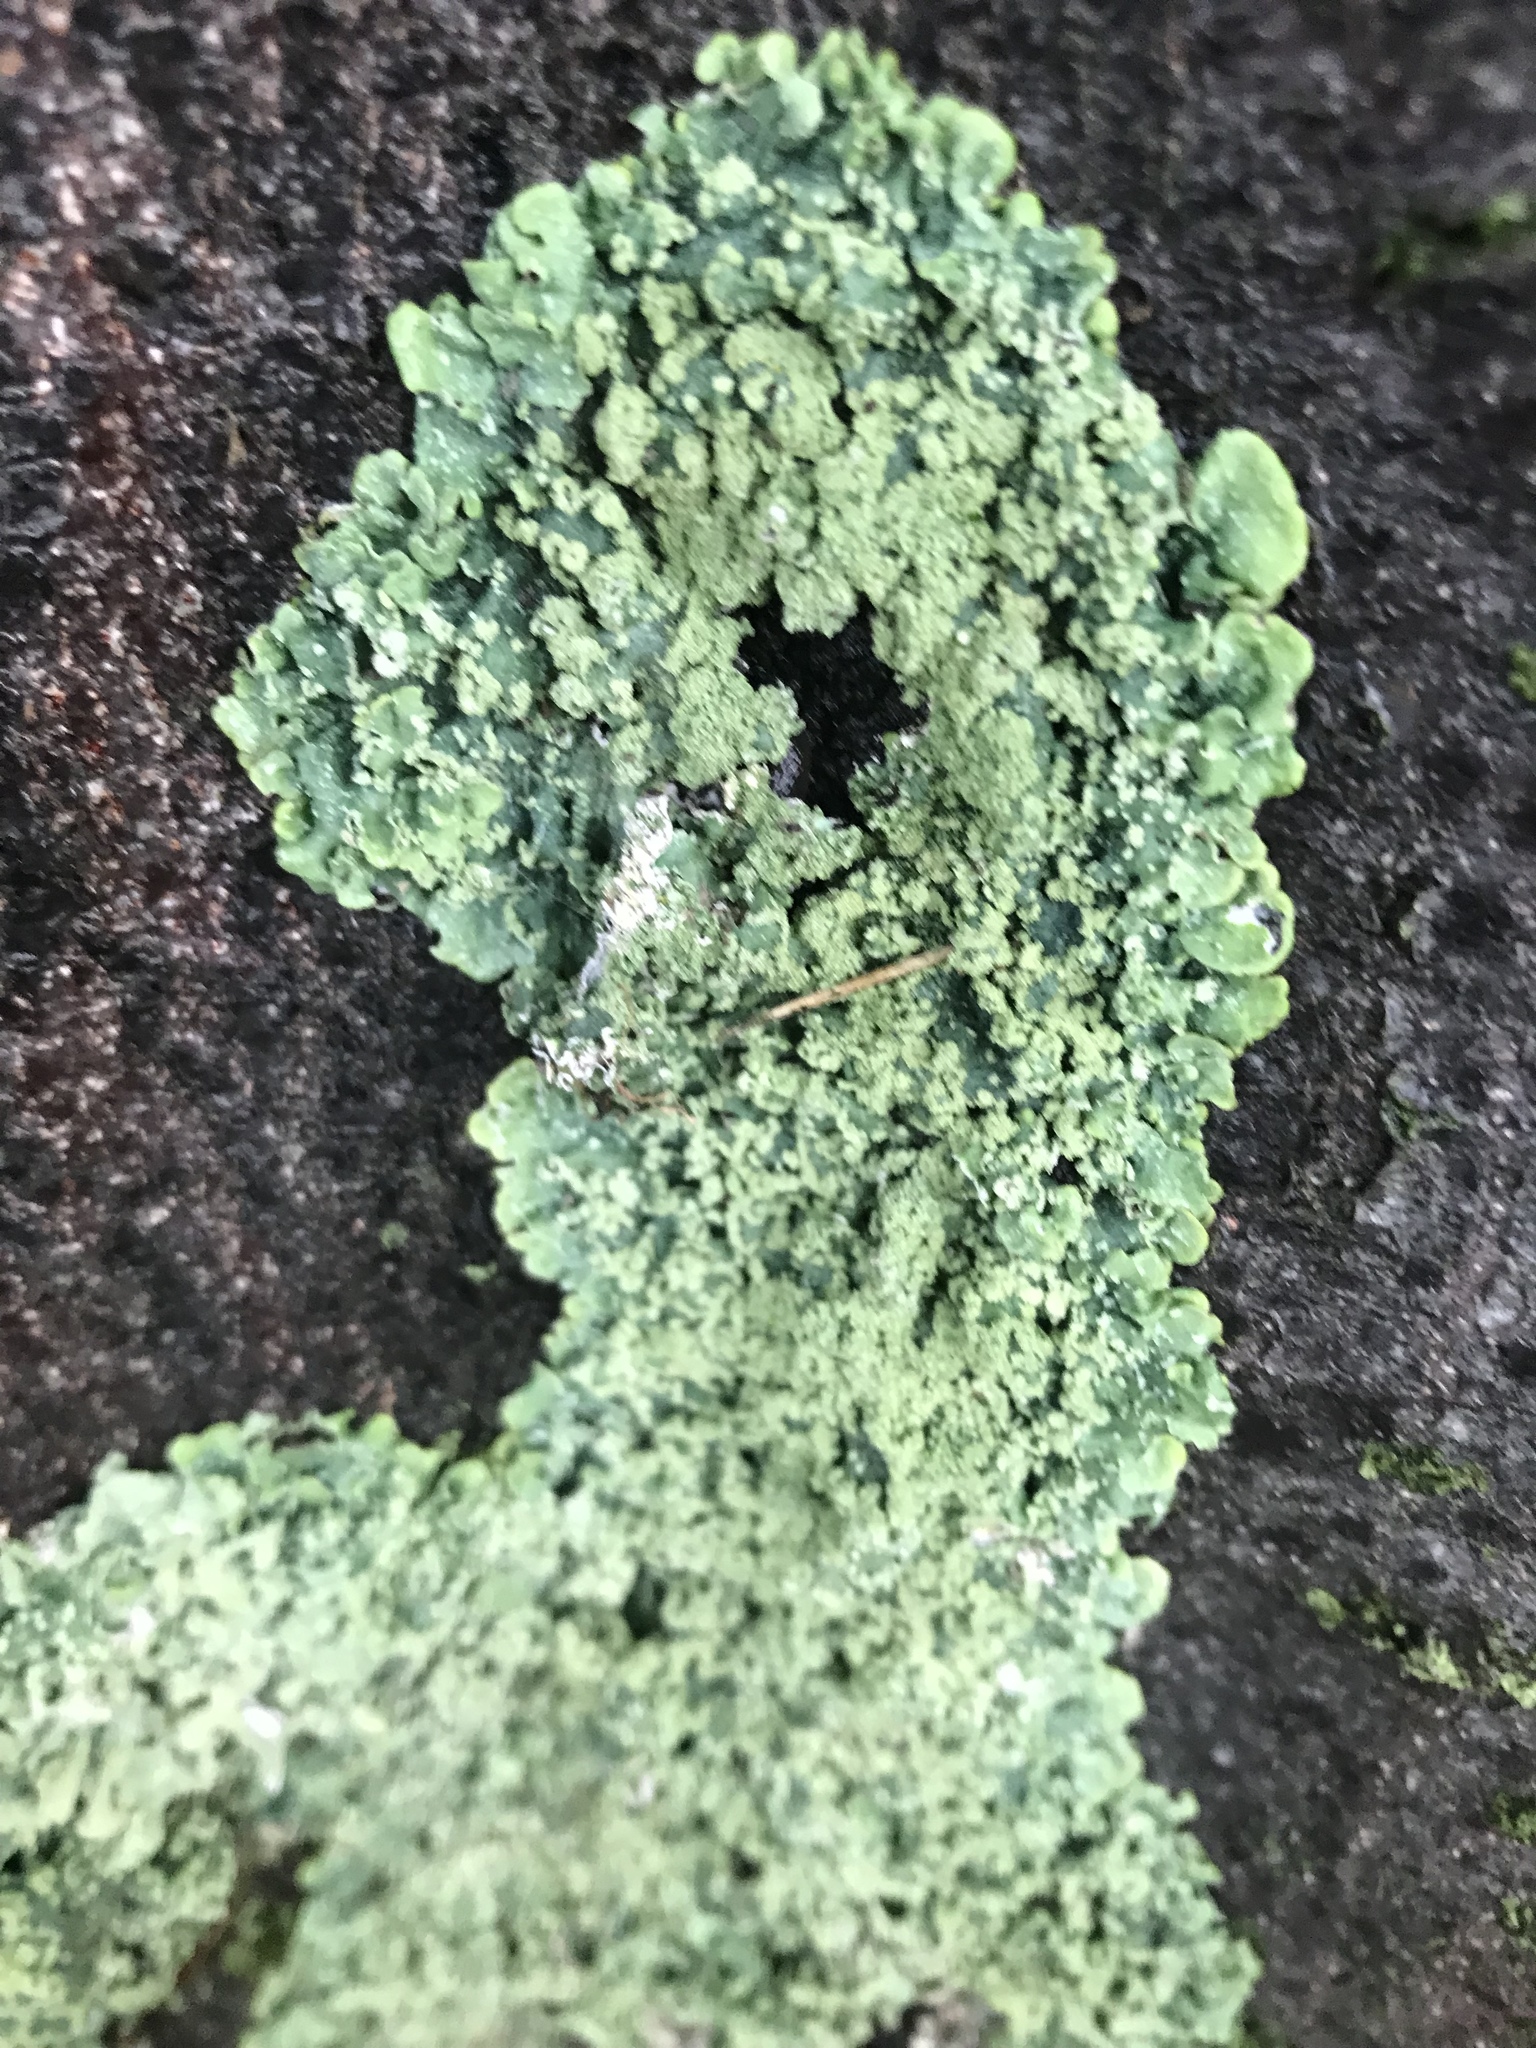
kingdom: Fungi
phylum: Ascomycota
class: Lecanoromycetes
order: Lecanorales
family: Parmeliaceae
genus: Flavopunctelia
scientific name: Flavopunctelia flaventior
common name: Speckled greenshield
